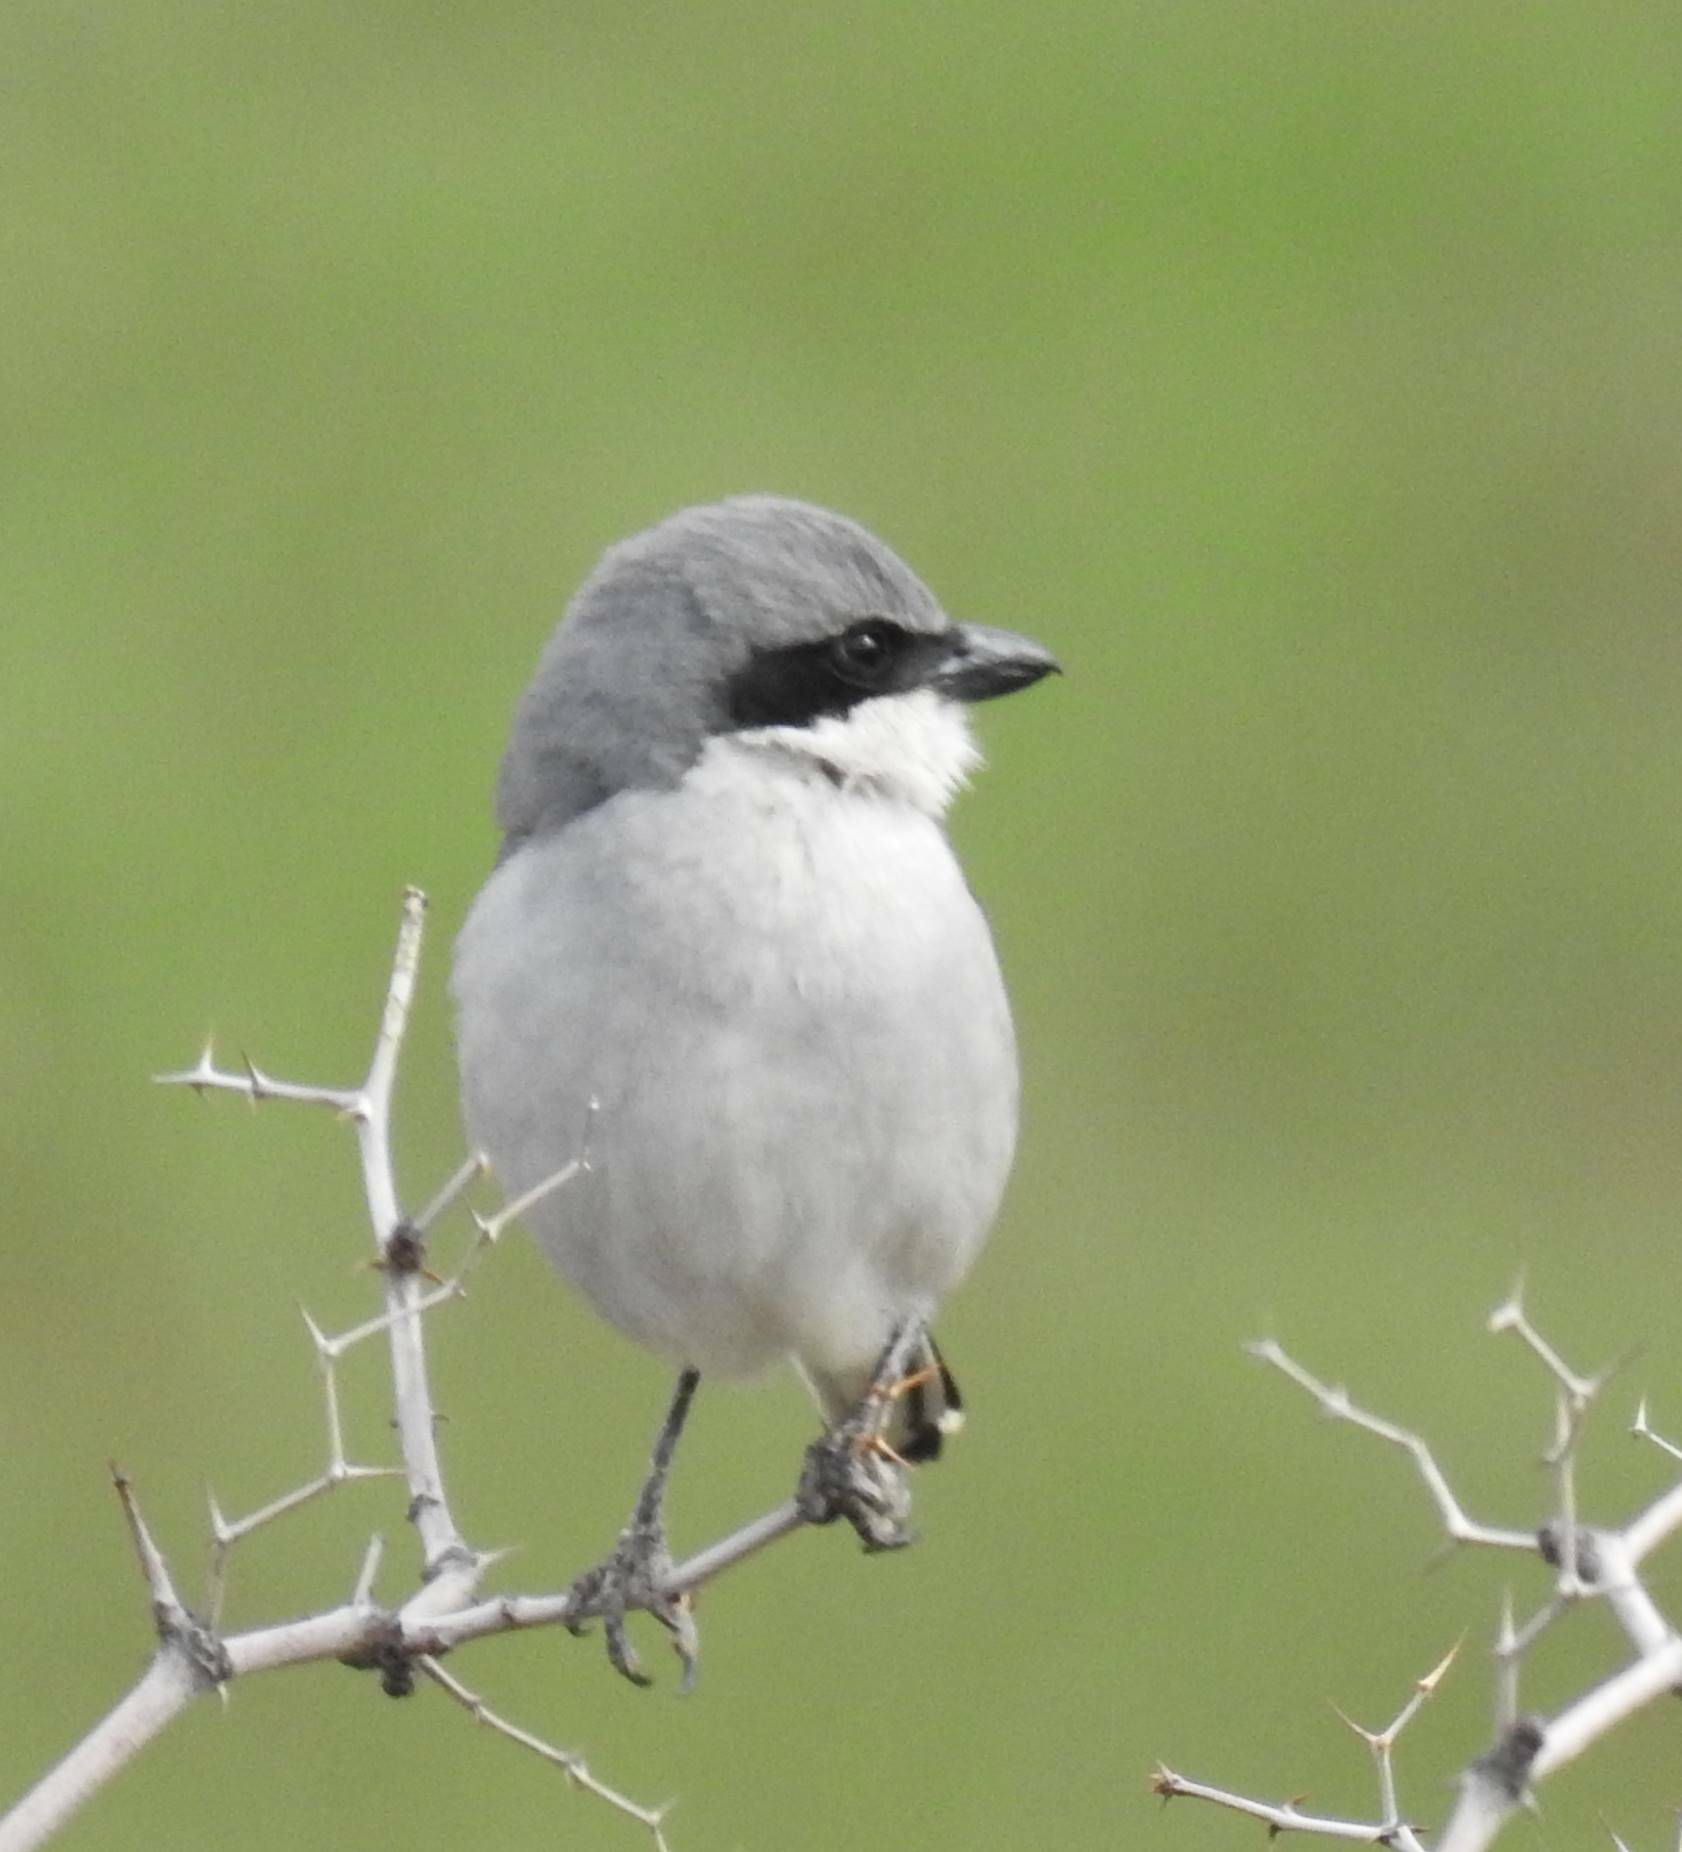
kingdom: Animalia
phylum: Chordata
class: Aves
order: Passeriformes
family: Laniidae
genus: Lanius
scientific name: Lanius excubitor
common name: Great grey shrike
